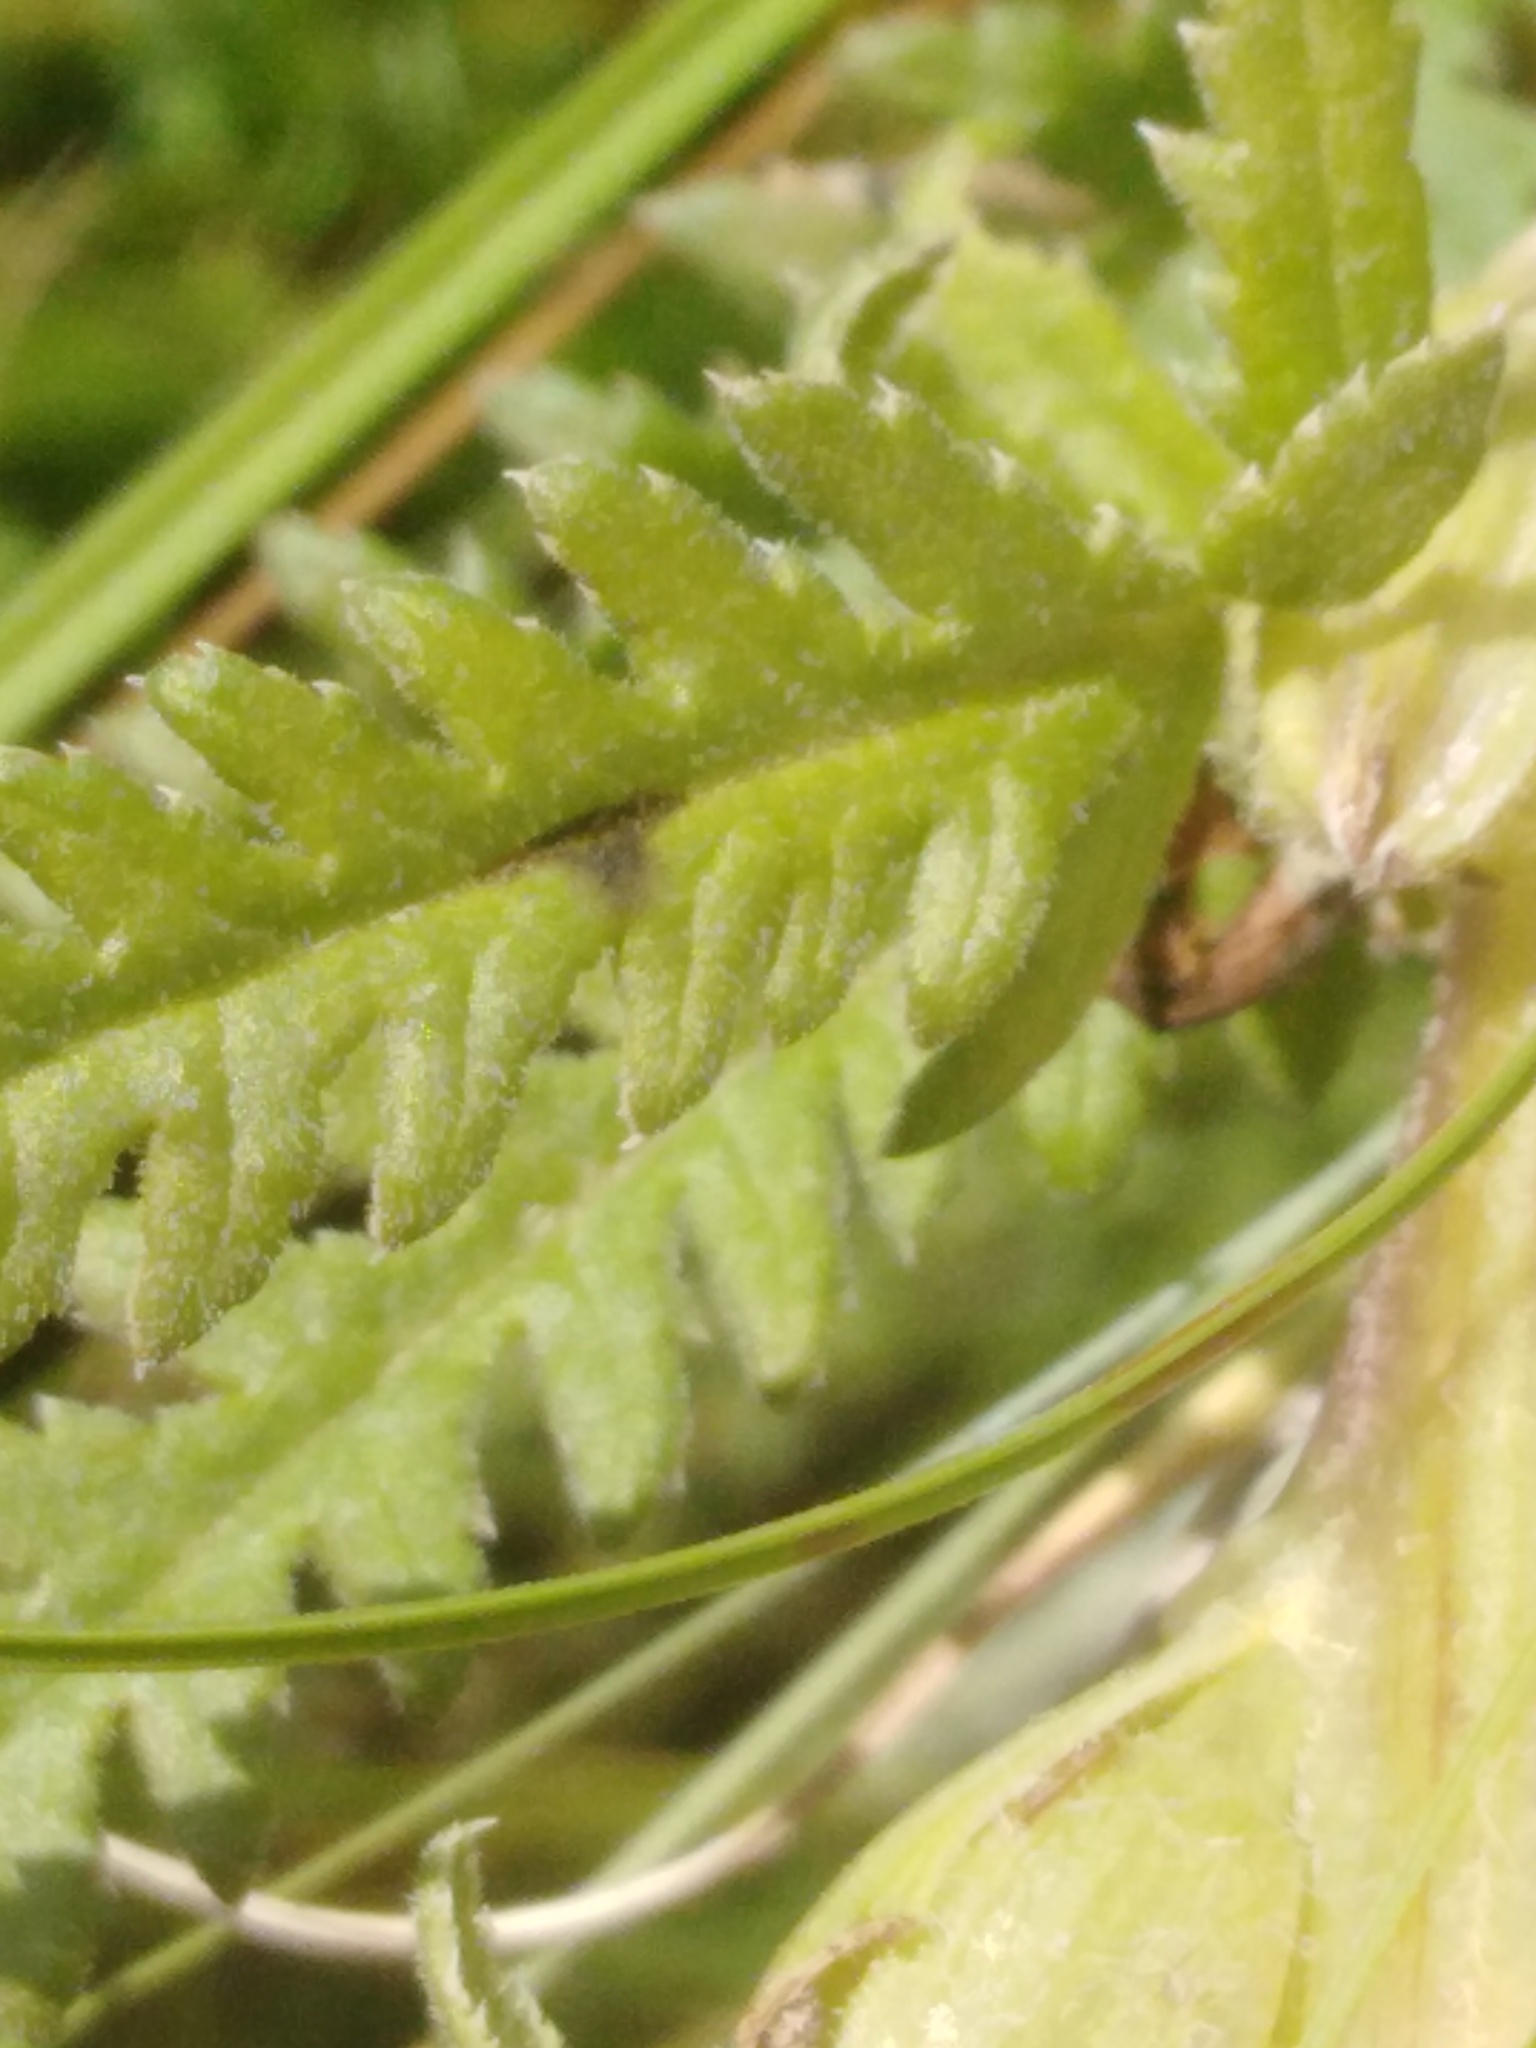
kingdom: Plantae
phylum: Tracheophyta
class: Magnoliopsida
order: Lamiales
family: Orobanchaceae
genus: Pedicularis
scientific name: Pedicularis kaufmannii
